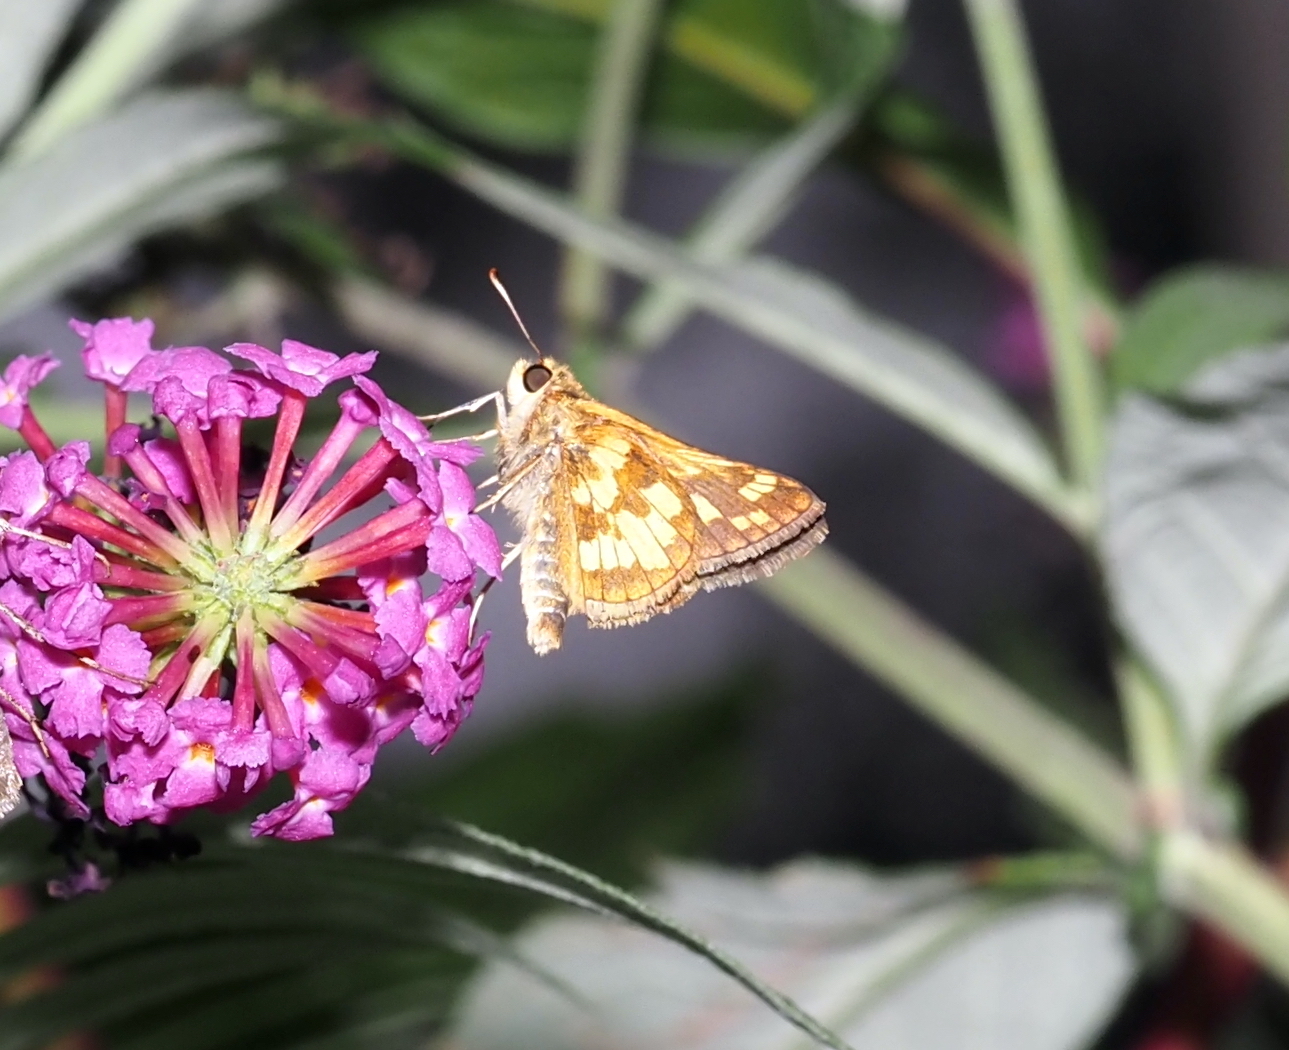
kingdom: Animalia
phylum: Arthropoda
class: Insecta
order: Lepidoptera
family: Hesperiidae
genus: Polites
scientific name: Polites coras
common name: Peck's skipper
